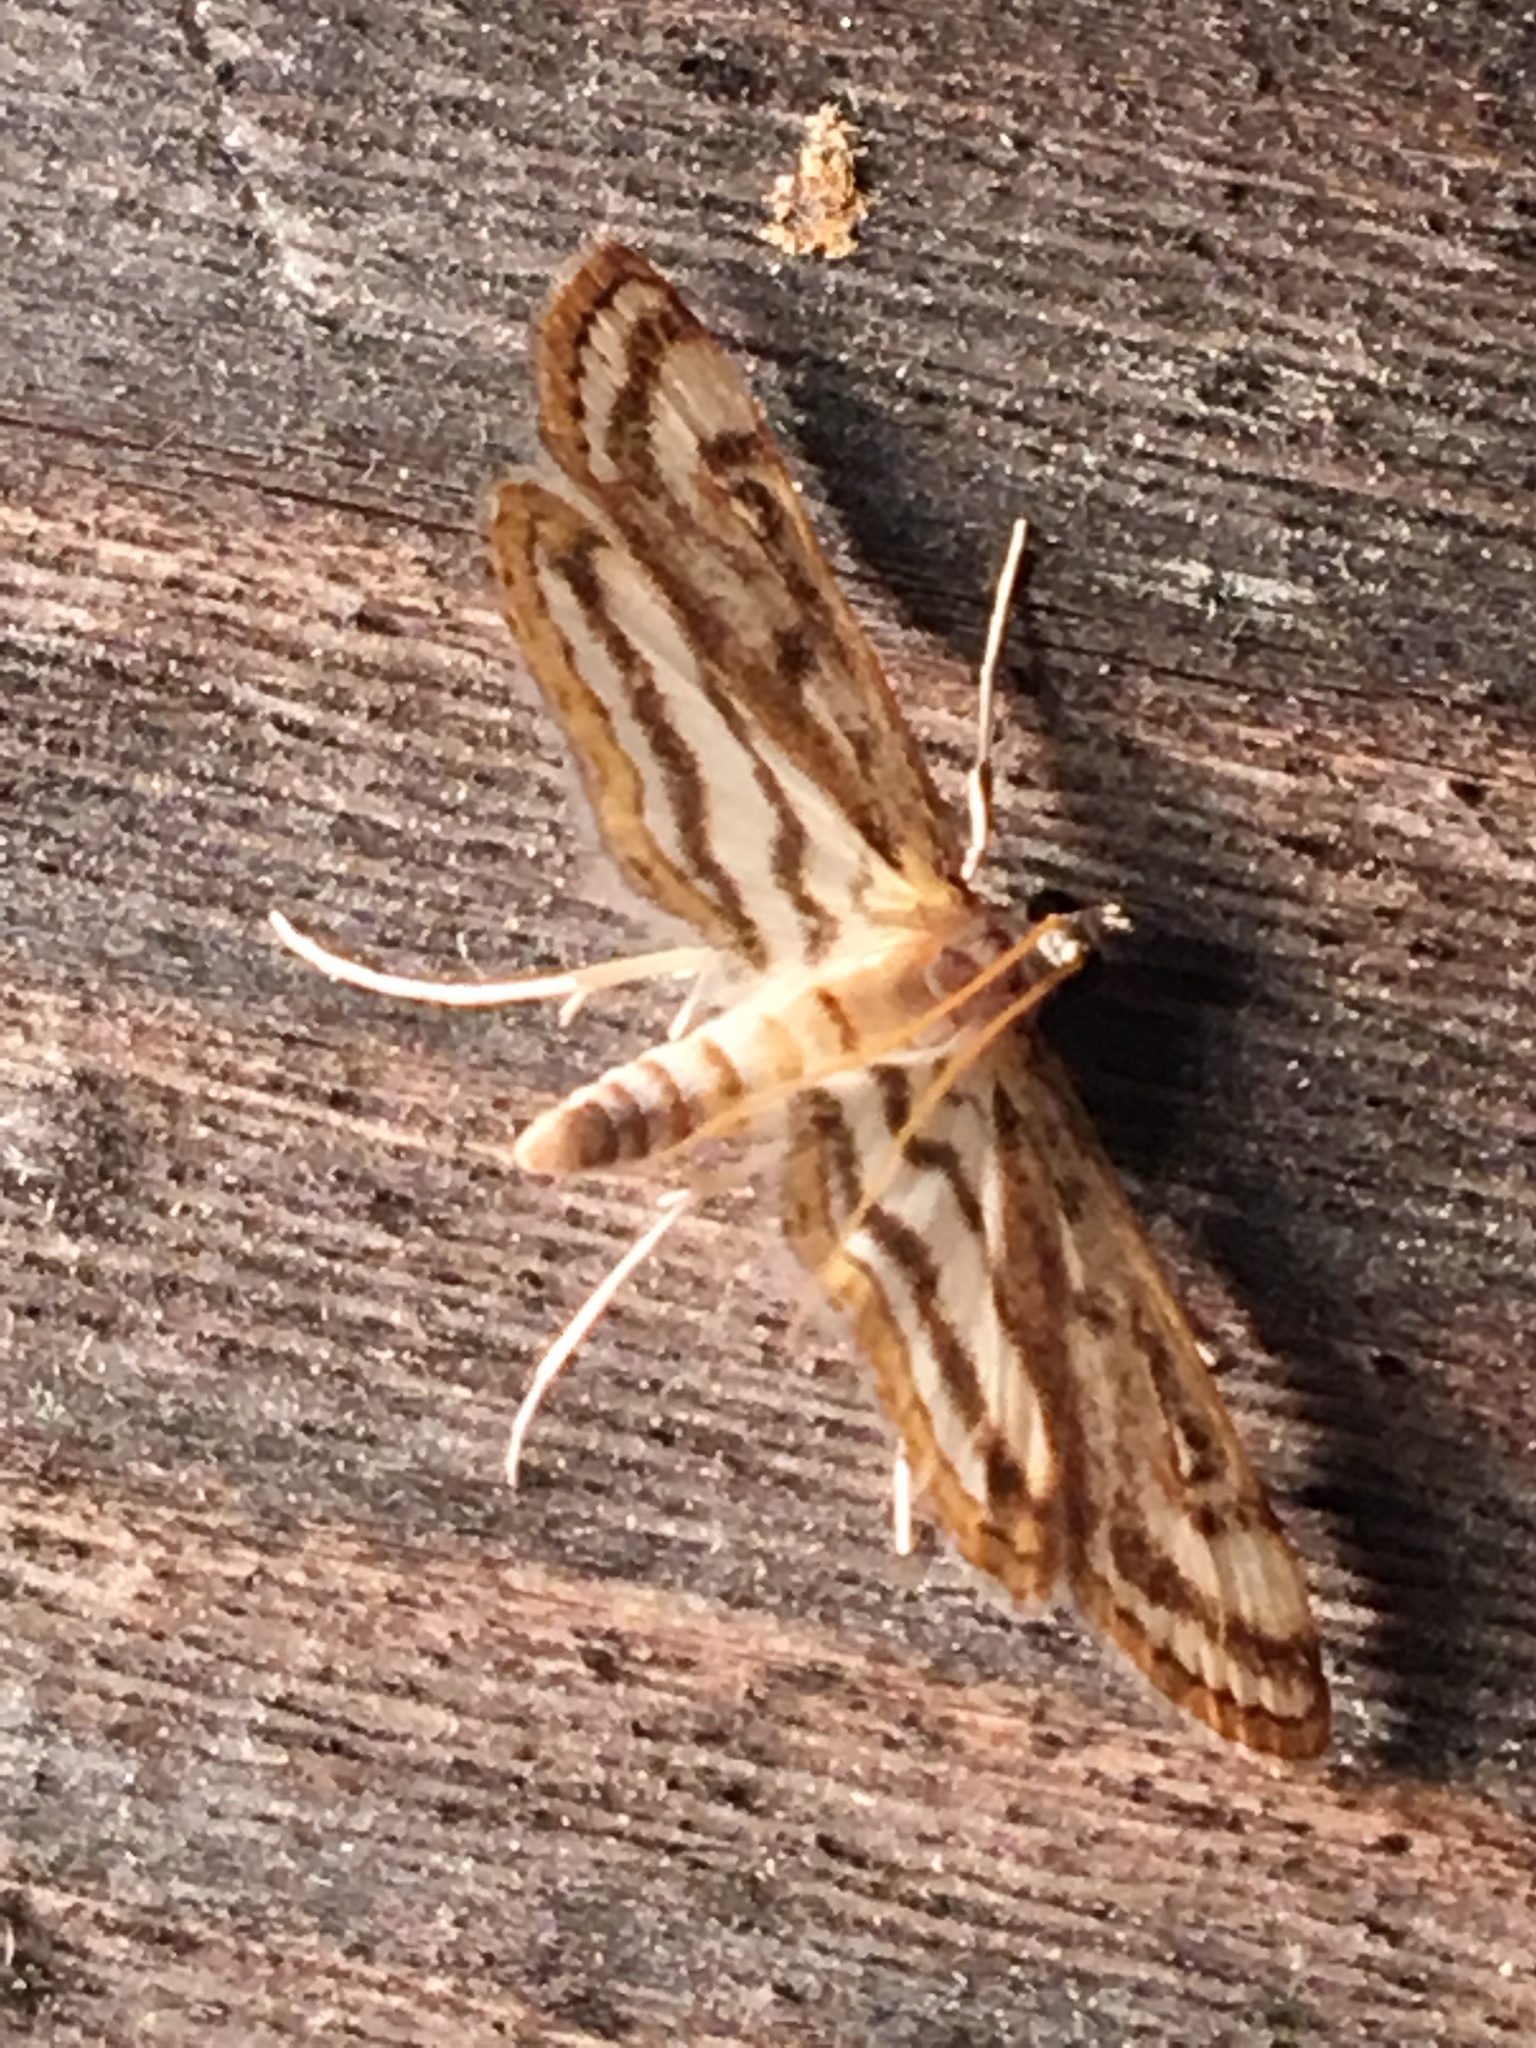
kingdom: Animalia
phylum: Arthropoda
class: Insecta
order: Lepidoptera
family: Crambidae
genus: Parapoynx
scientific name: Parapoynx badiusalis
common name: Chestnut-marked pondweed moth
